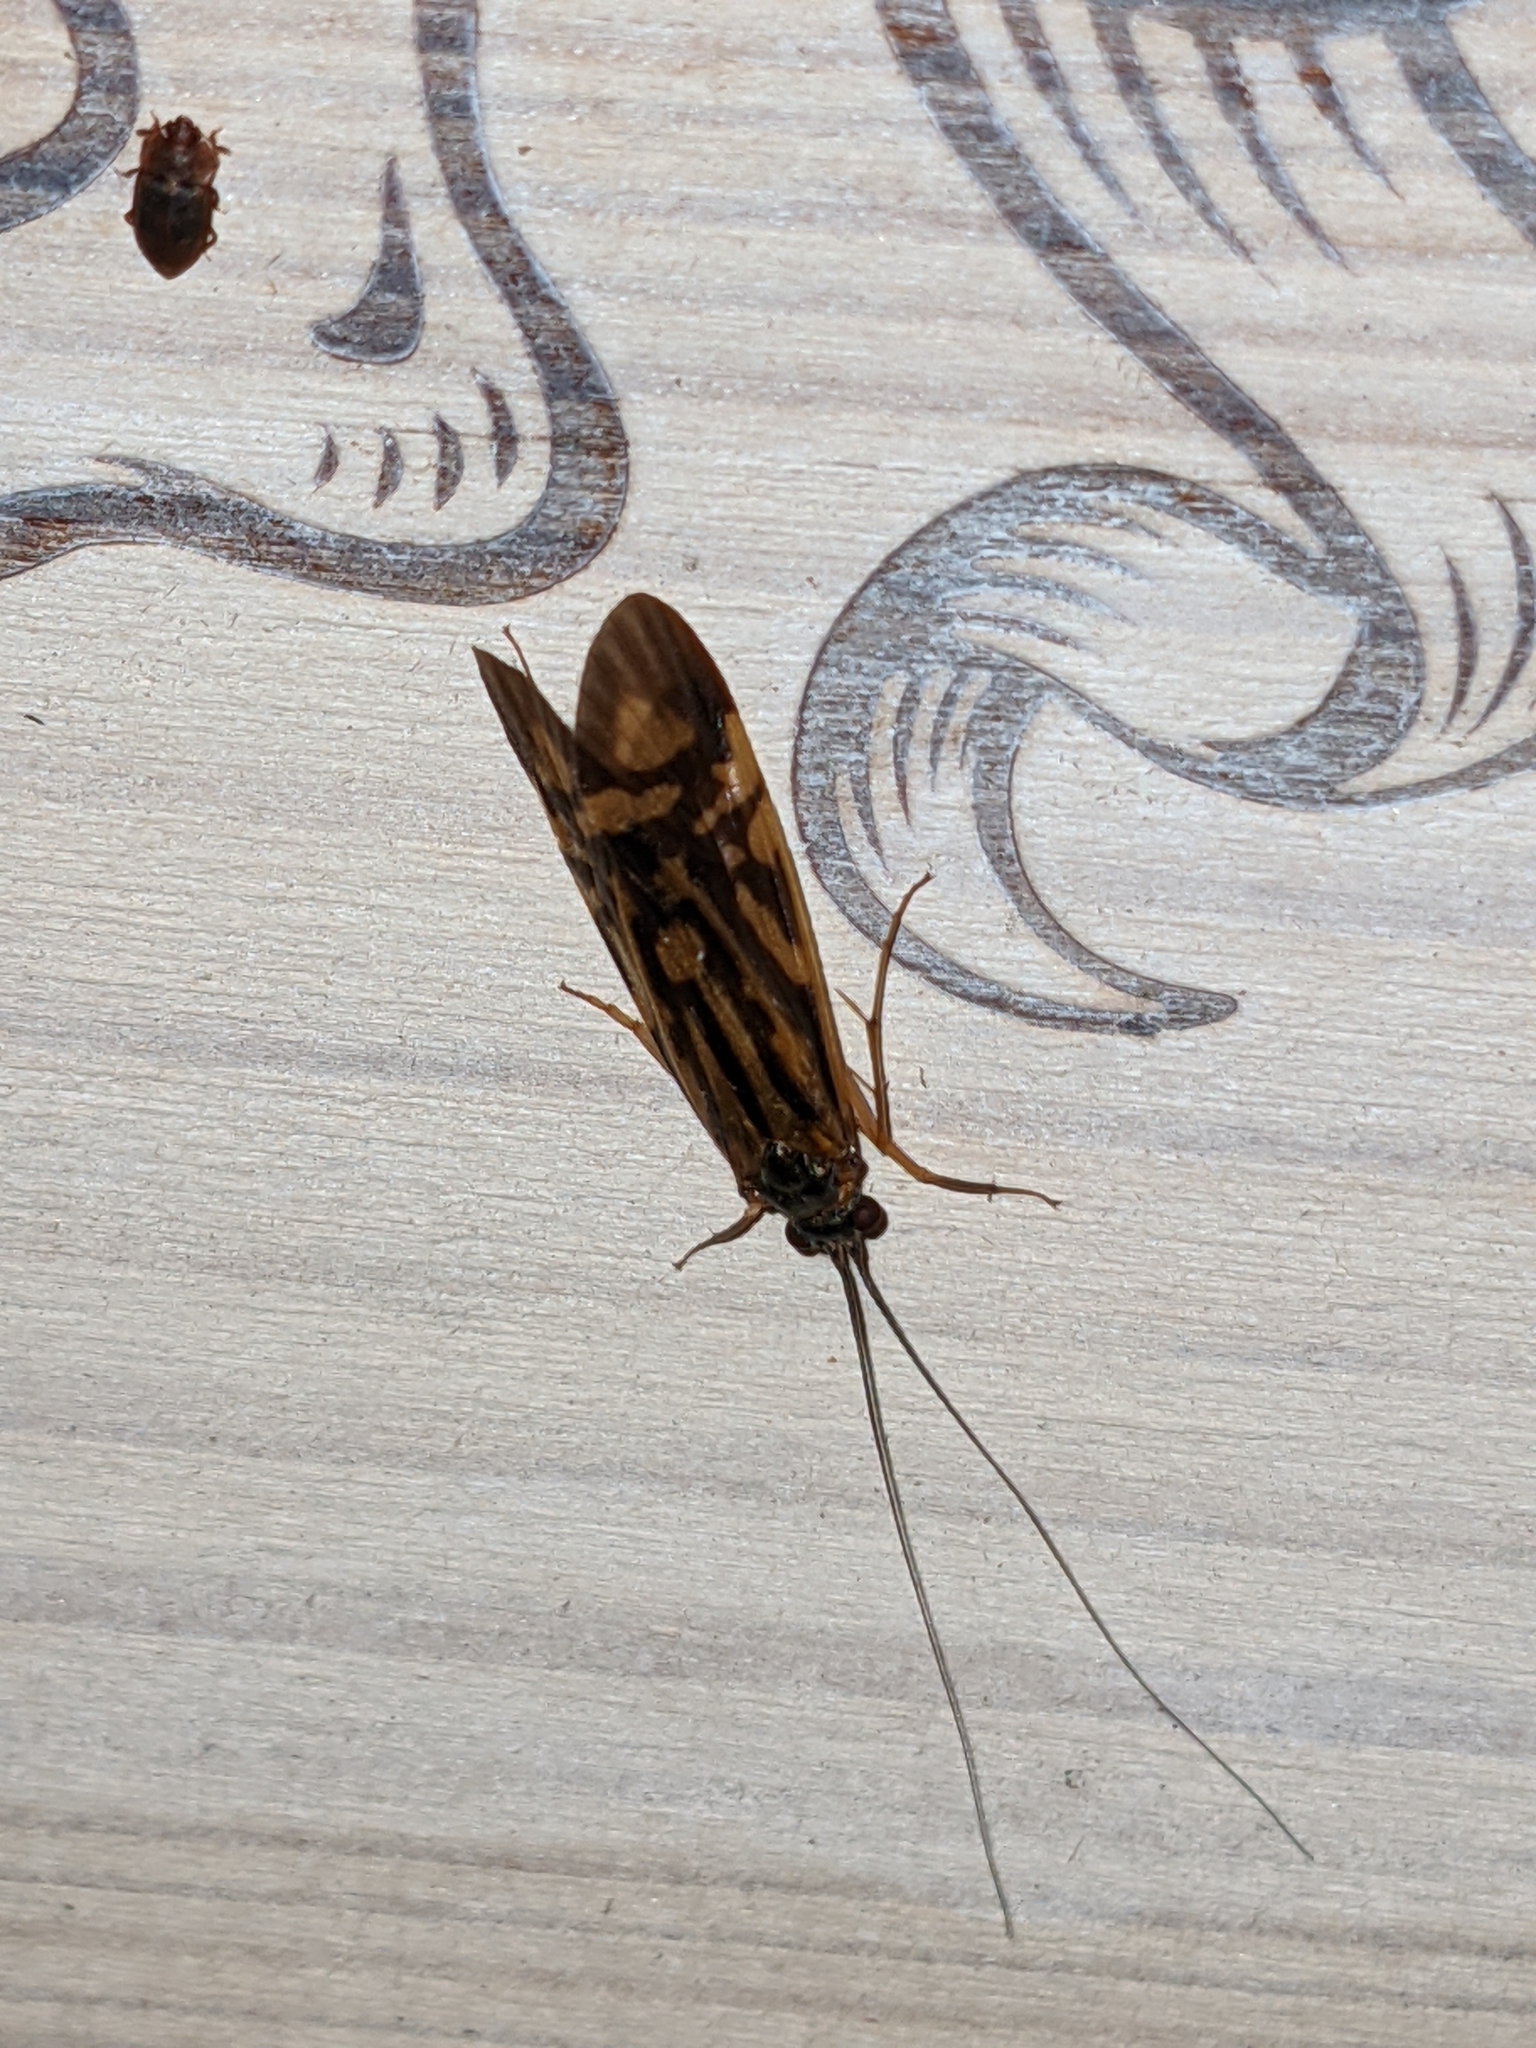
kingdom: Animalia
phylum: Arthropoda
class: Insecta
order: Trichoptera
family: Hydropsychidae
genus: Macrostemum
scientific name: Macrostemum zebratum
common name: Zebra caddisfly
